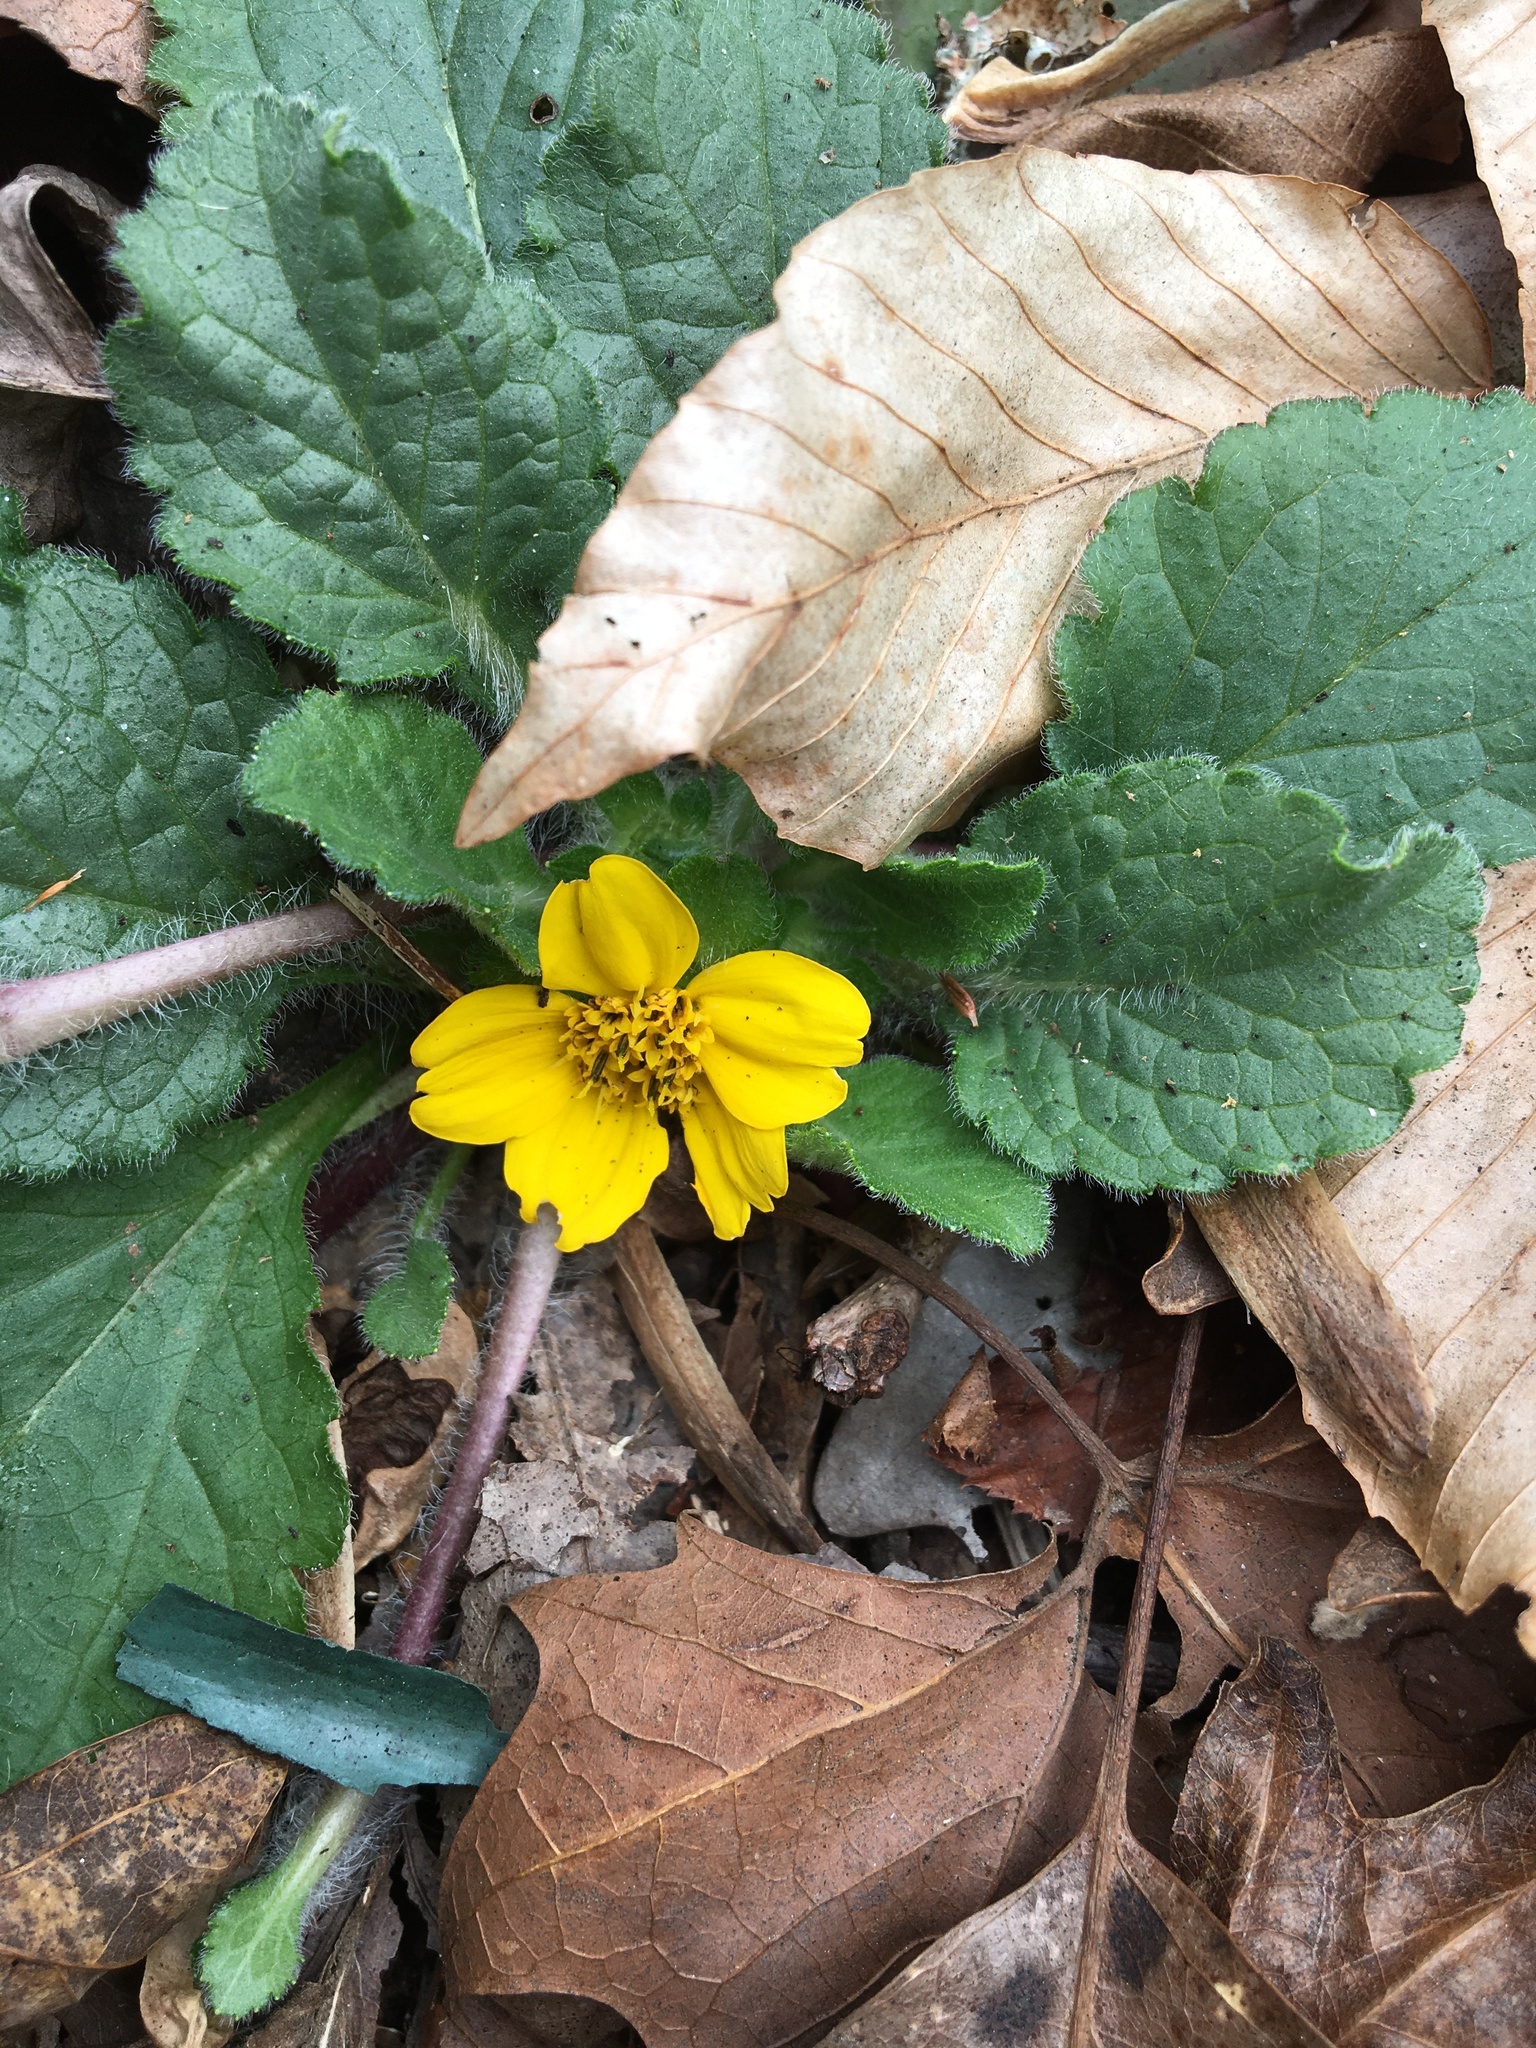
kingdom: Plantae
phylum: Tracheophyta
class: Magnoliopsida
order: Asterales
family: Asteraceae
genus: Chrysogonum
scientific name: Chrysogonum virginianum
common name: Golden-knee
